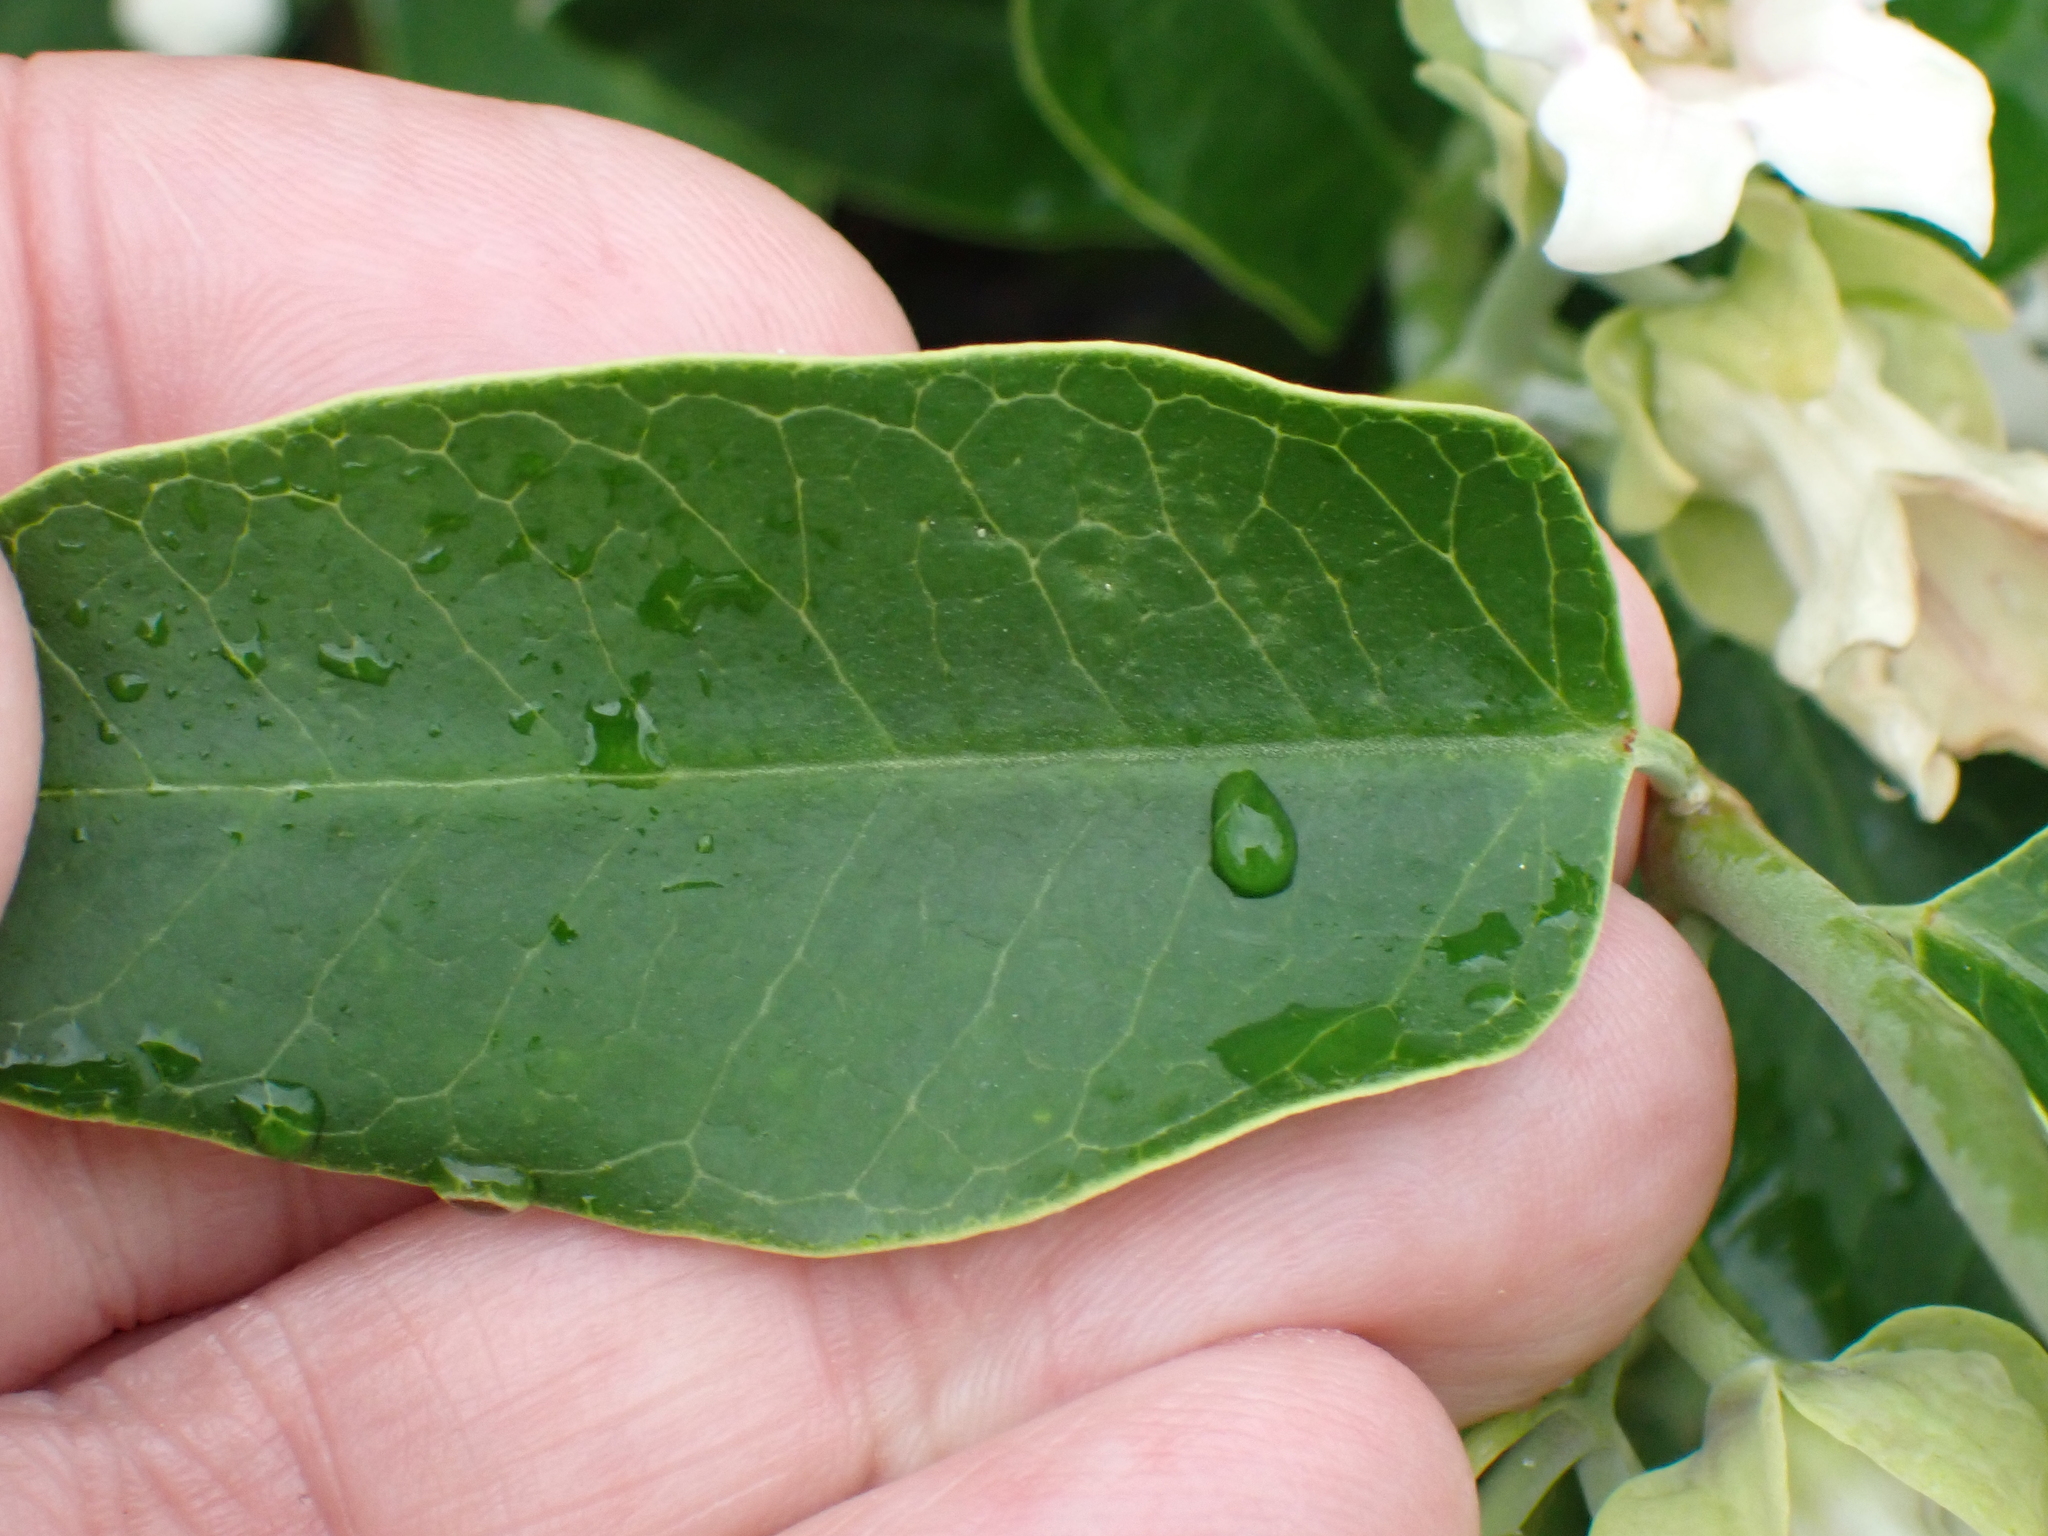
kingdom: Plantae
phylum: Tracheophyta
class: Magnoliopsida
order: Gentianales
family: Apocynaceae
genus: Araujia
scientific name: Araujia sericifera
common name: White bladderflower
